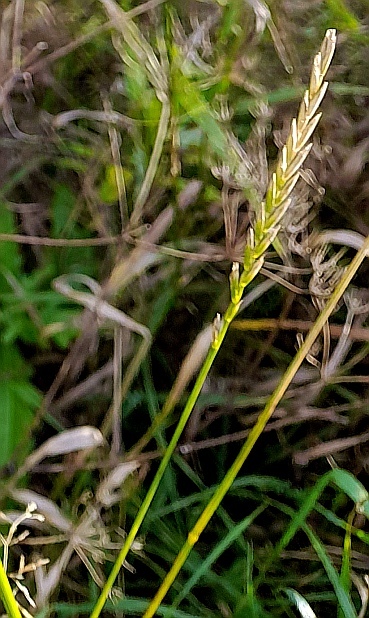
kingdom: Plantae
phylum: Tracheophyta
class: Liliopsida
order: Poales
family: Poaceae
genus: Elymus
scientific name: Elymus repens
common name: Quackgrass
